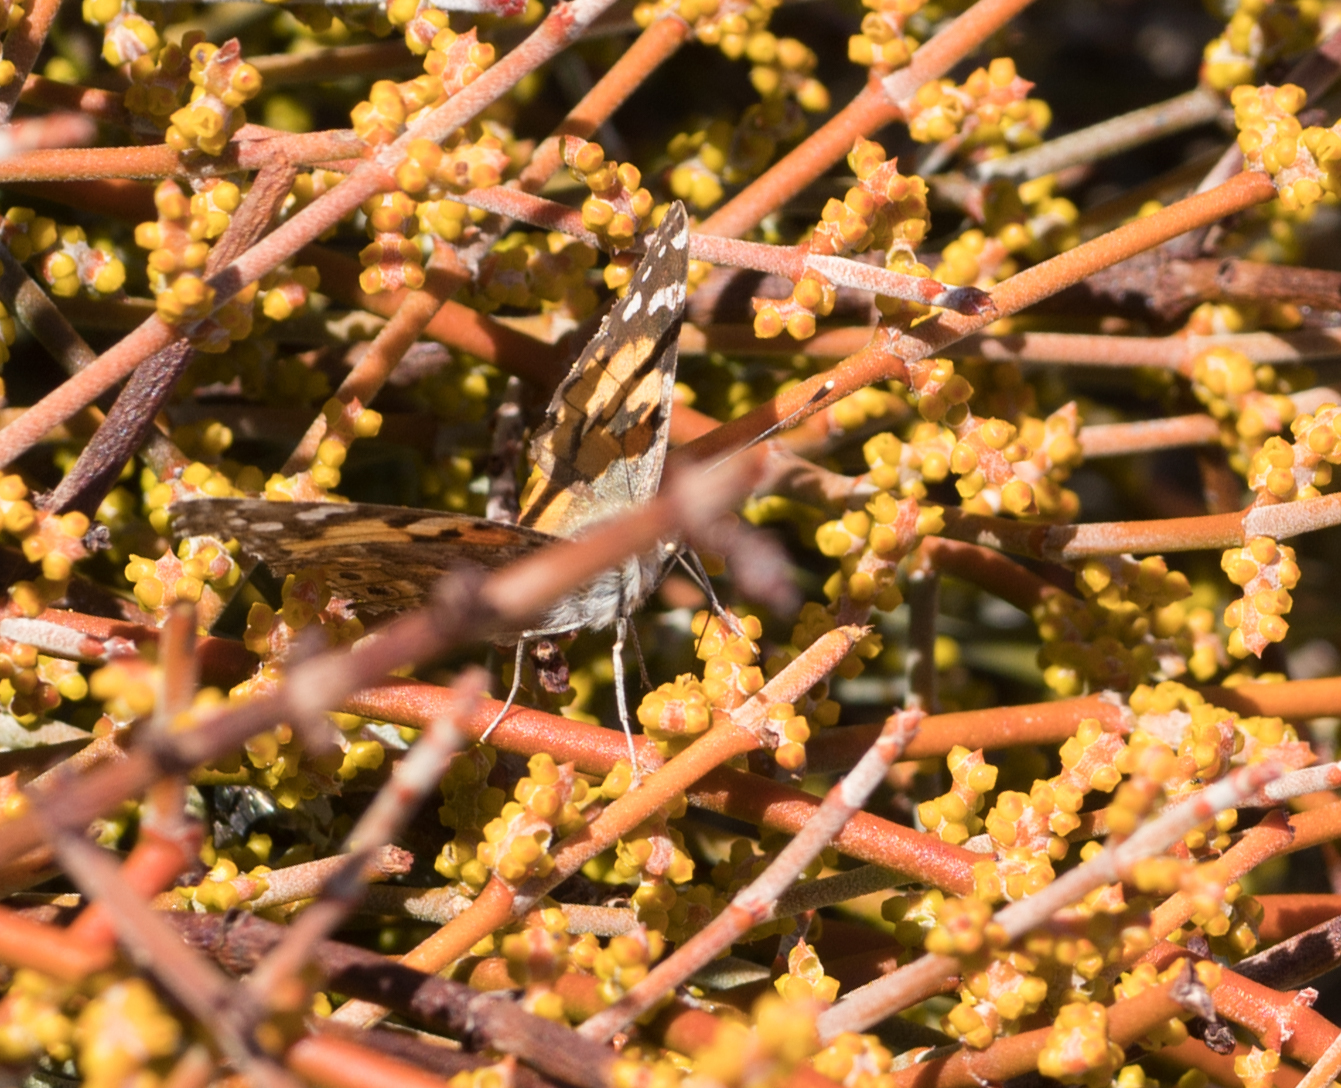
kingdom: Animalia
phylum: Arthropoda
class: Insecta
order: Lepidoptera
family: Nymphalidae
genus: Vanessa
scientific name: Vanessa cardui
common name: Painted lady
